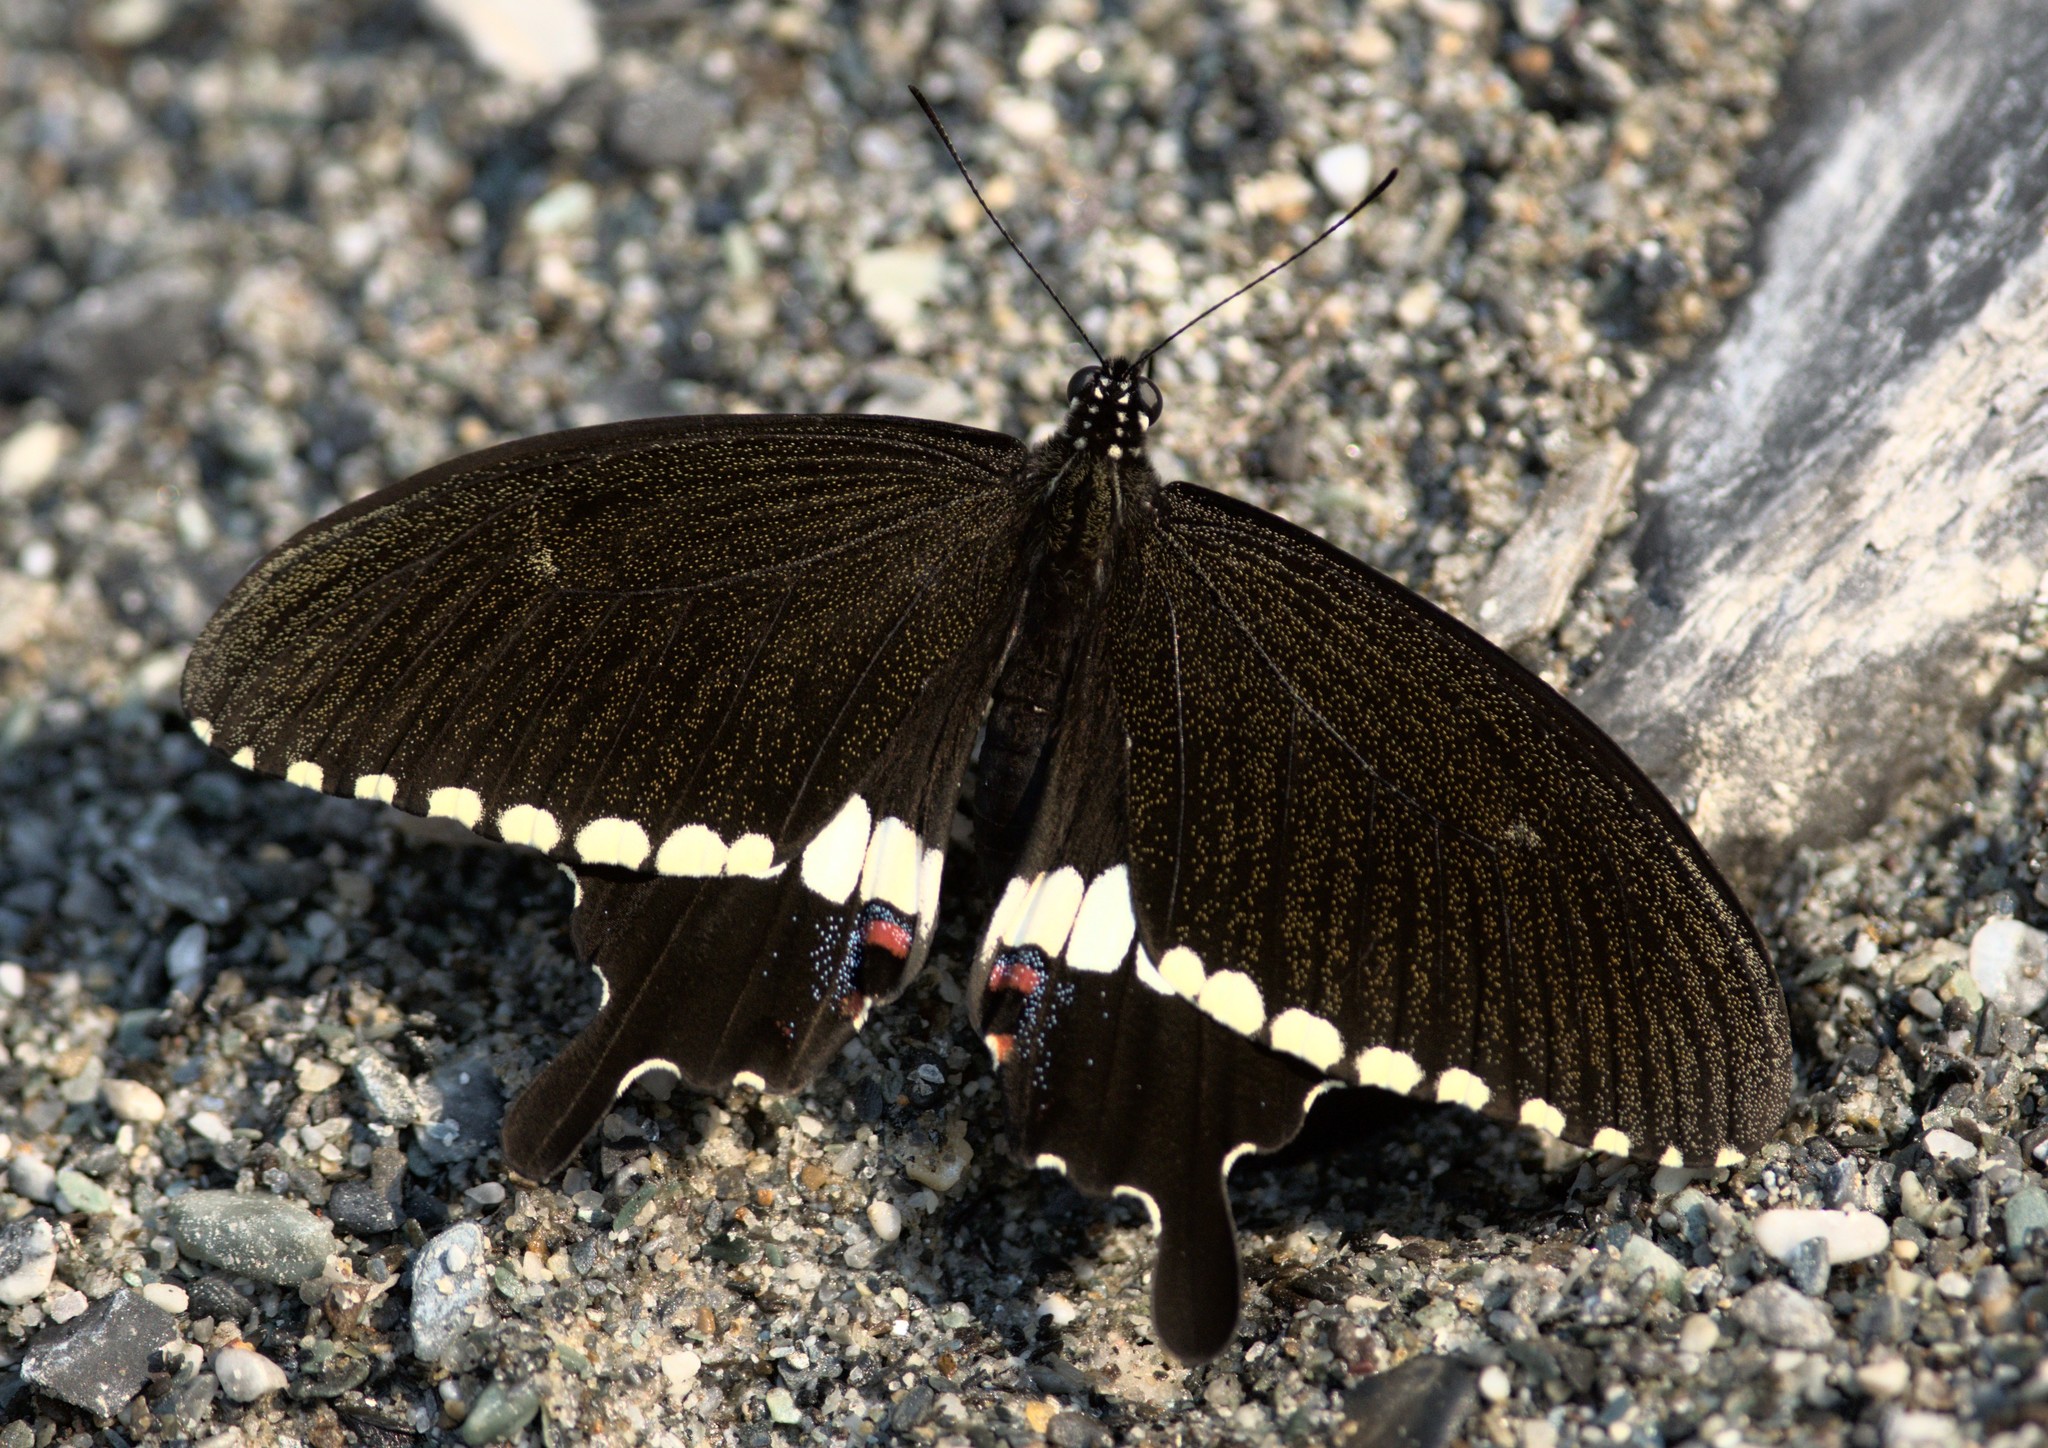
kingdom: Animalia
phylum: Arthropoda
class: Insecta
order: Lepidoptera
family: Papilionidae
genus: Papilio
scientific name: Papilio polytes
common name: Common mormon
